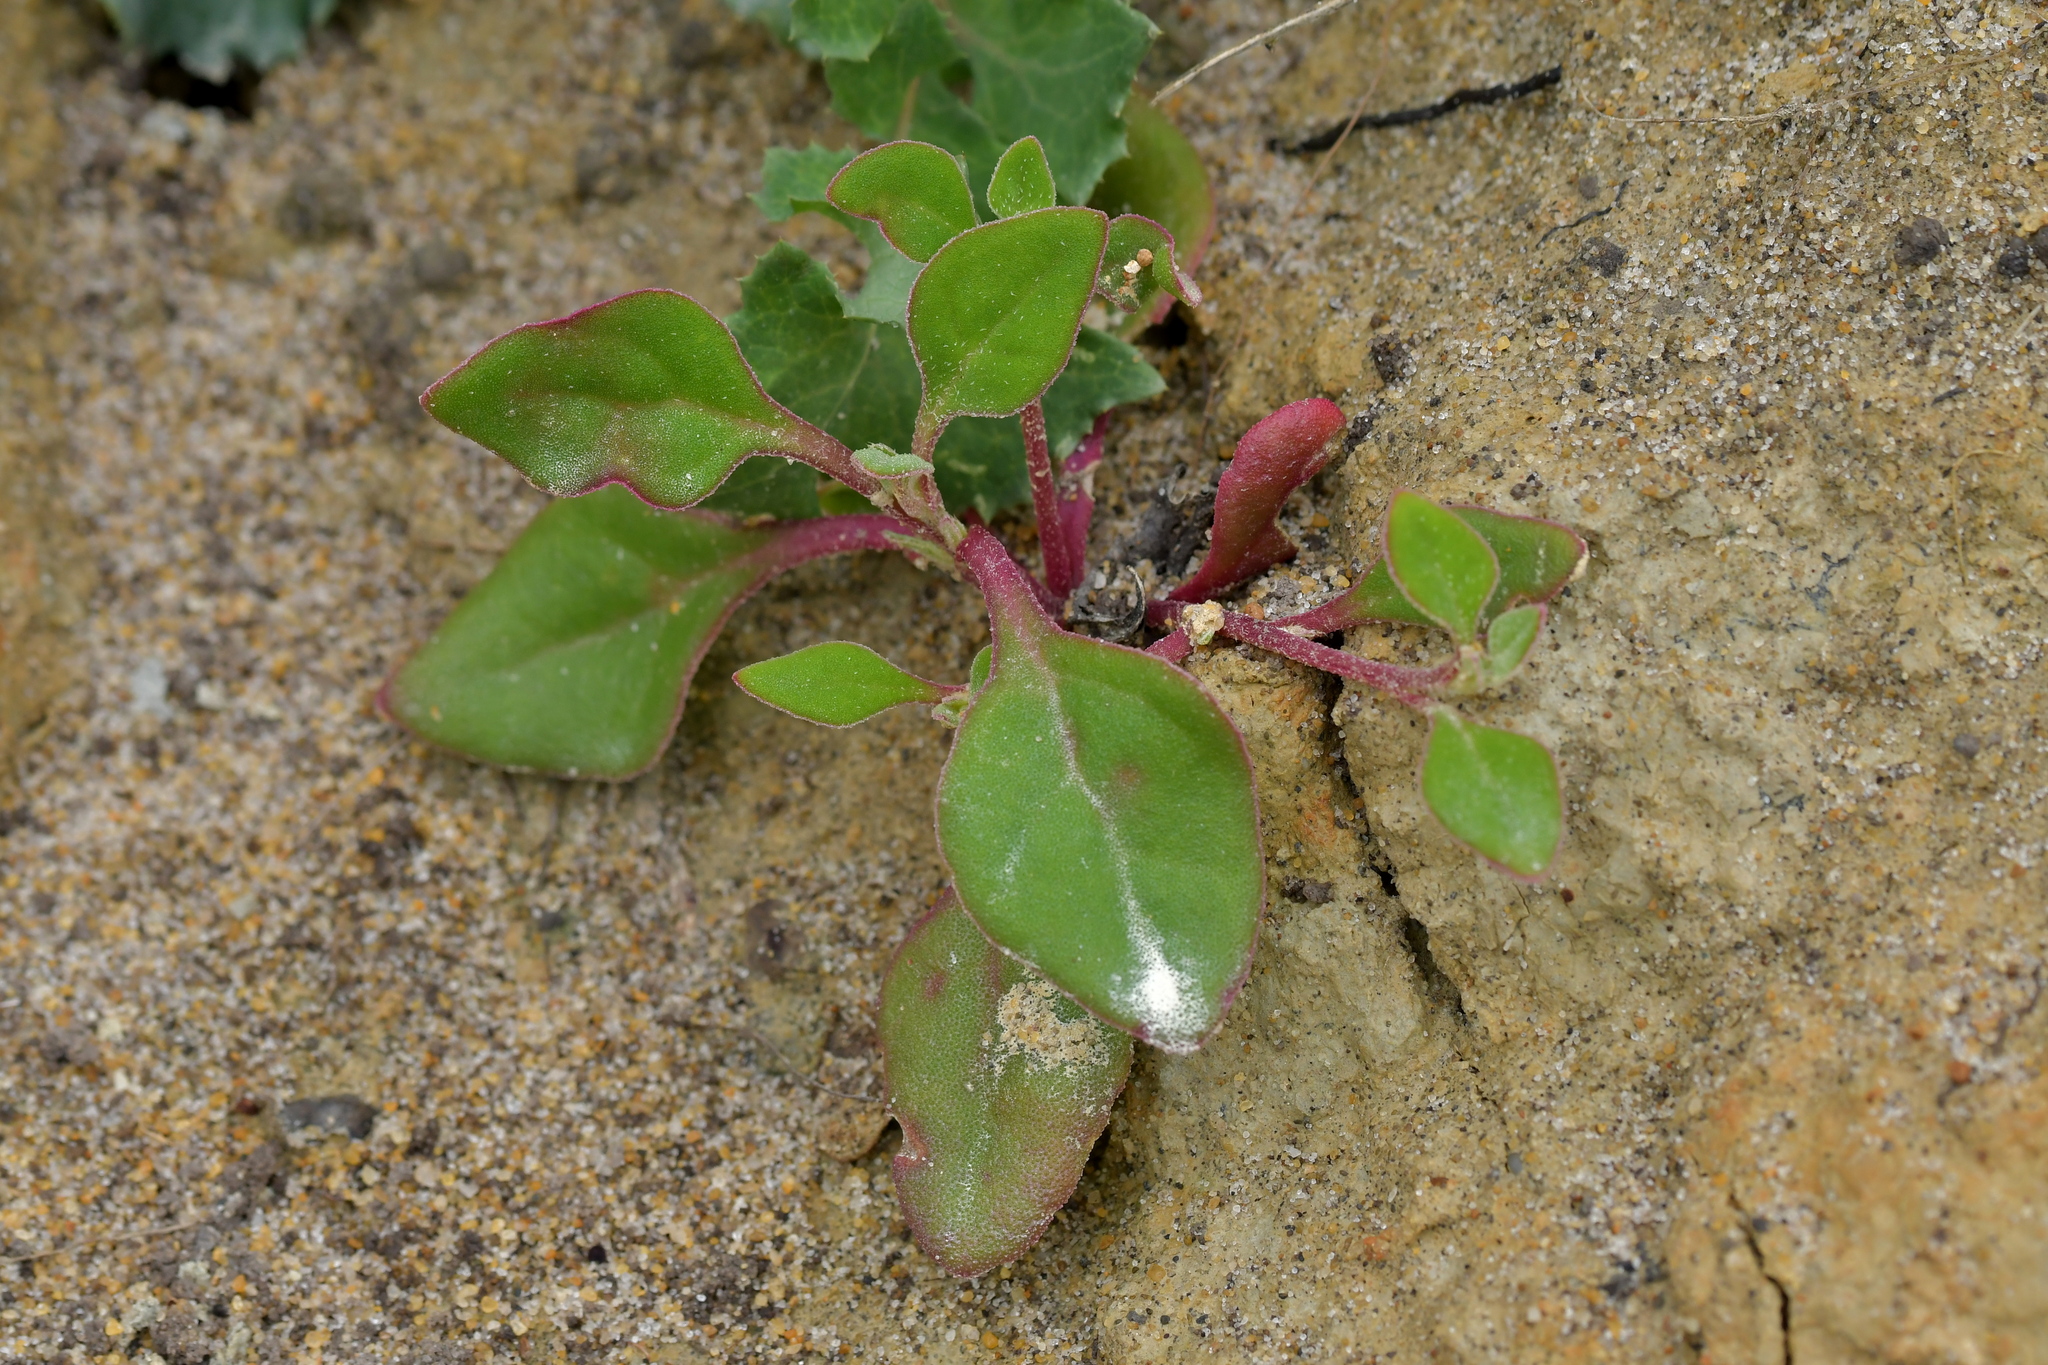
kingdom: Plantae
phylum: Tracheophyta
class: Magnoliopsida
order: Caryophyllales
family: Aizoaceae
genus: Tetragonia
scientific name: Tetragonia implexicoma
